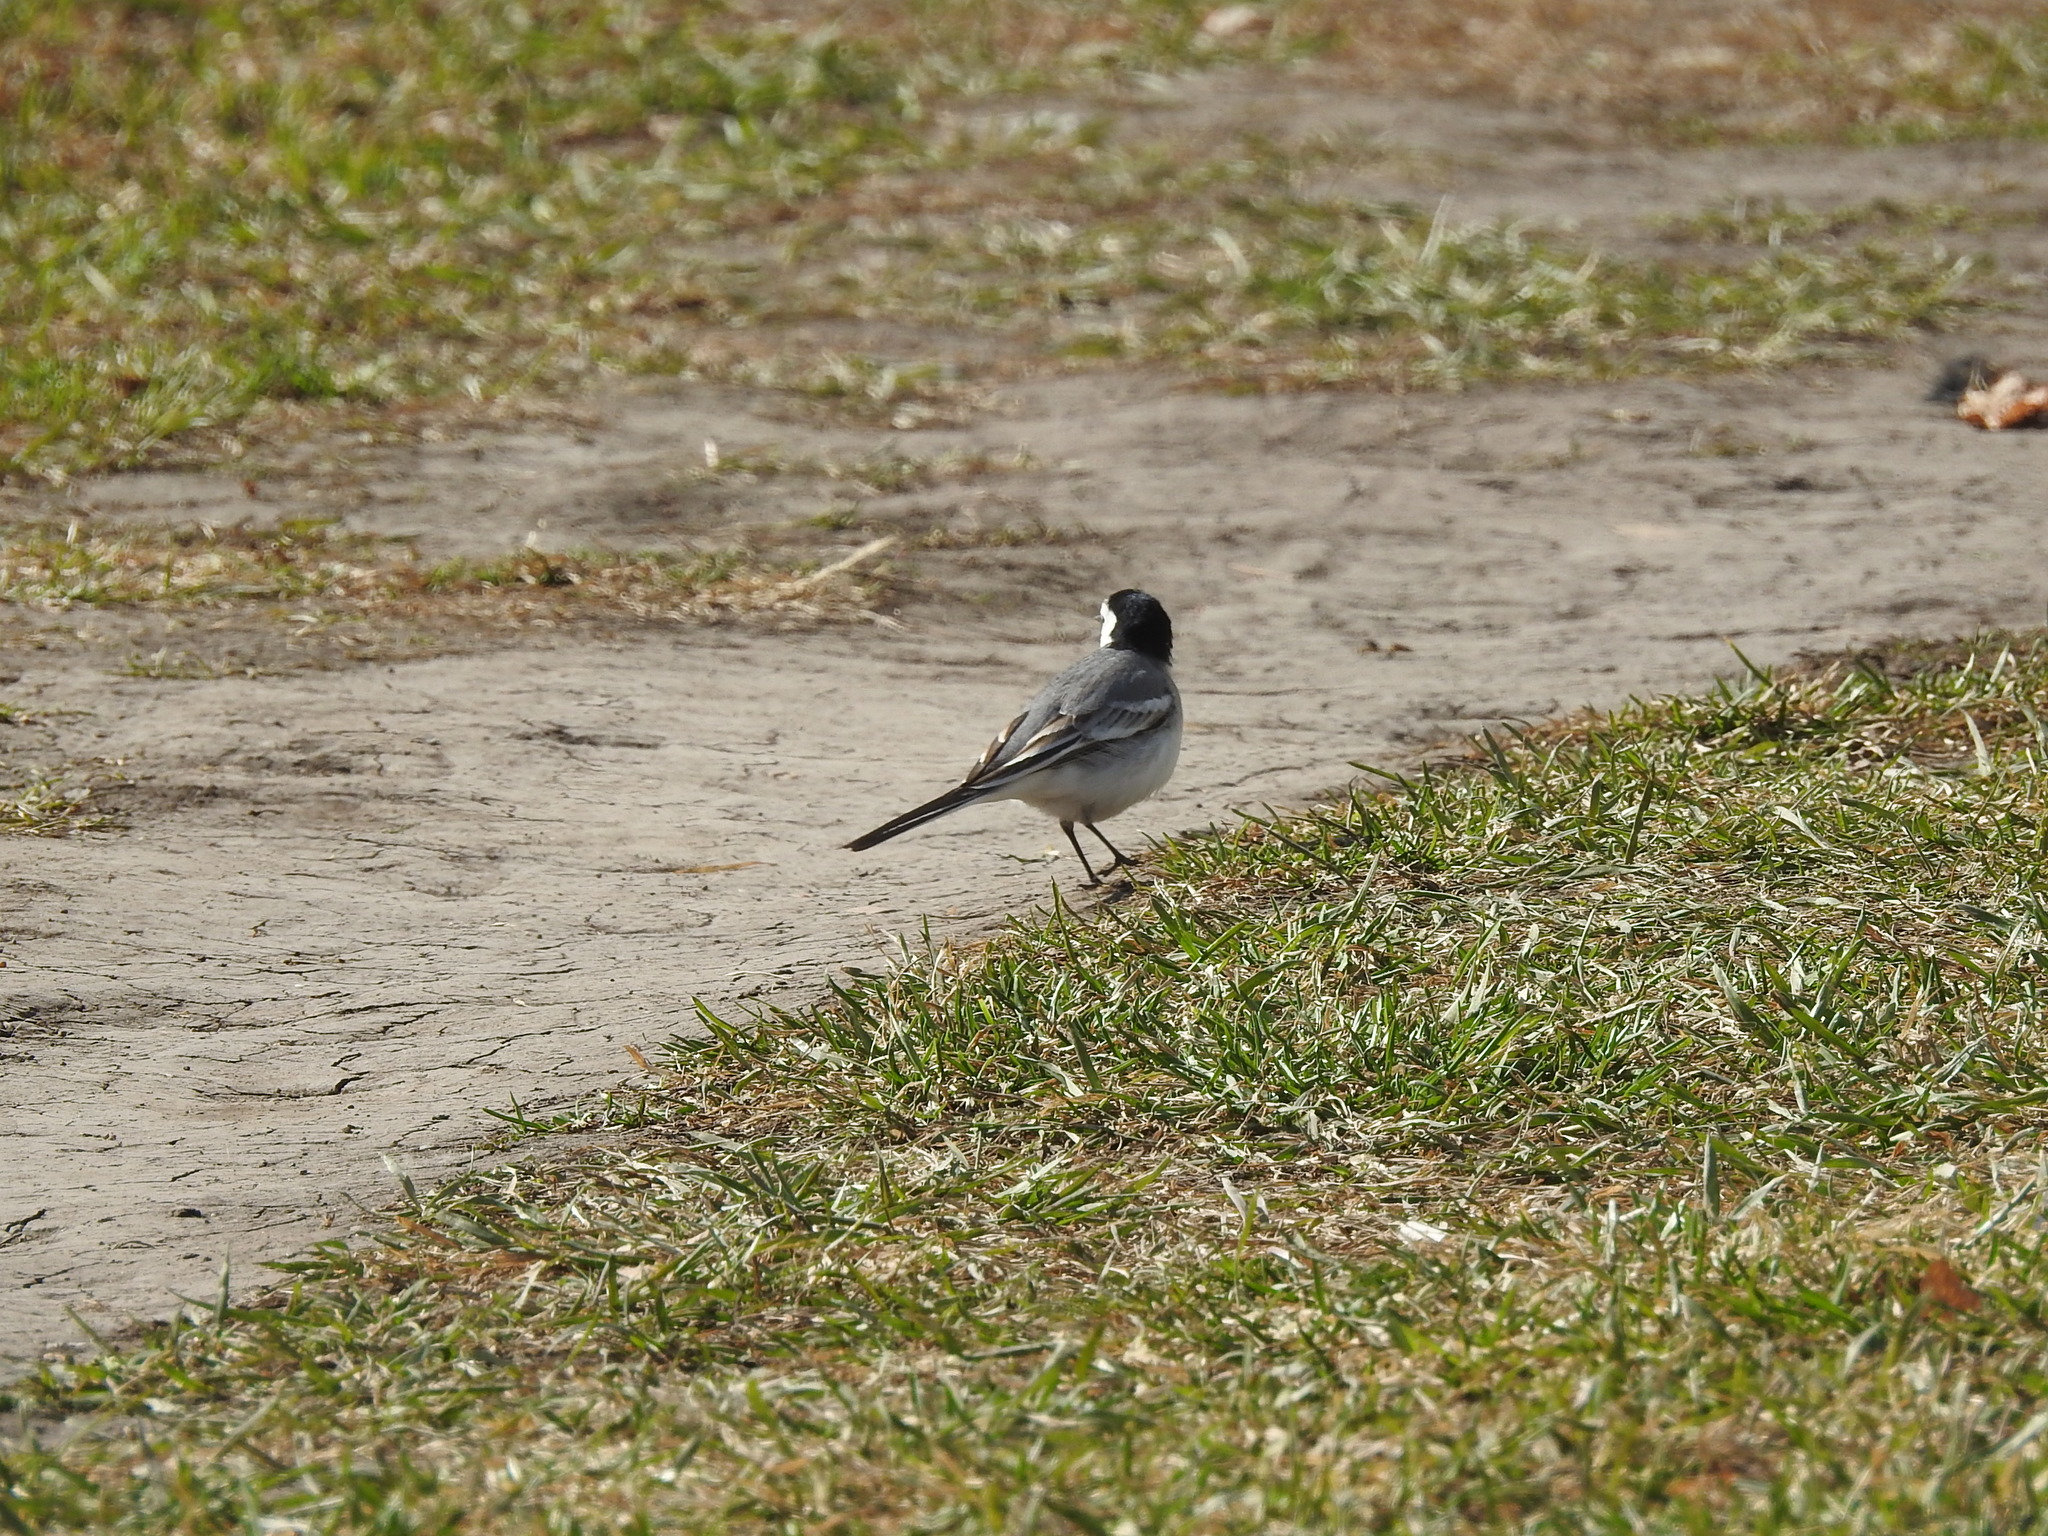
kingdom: Animalia
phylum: Chordata
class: Aves
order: Passeriformes
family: Motacillidae
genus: Motacilla
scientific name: Motacilla alba
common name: White wagtail
